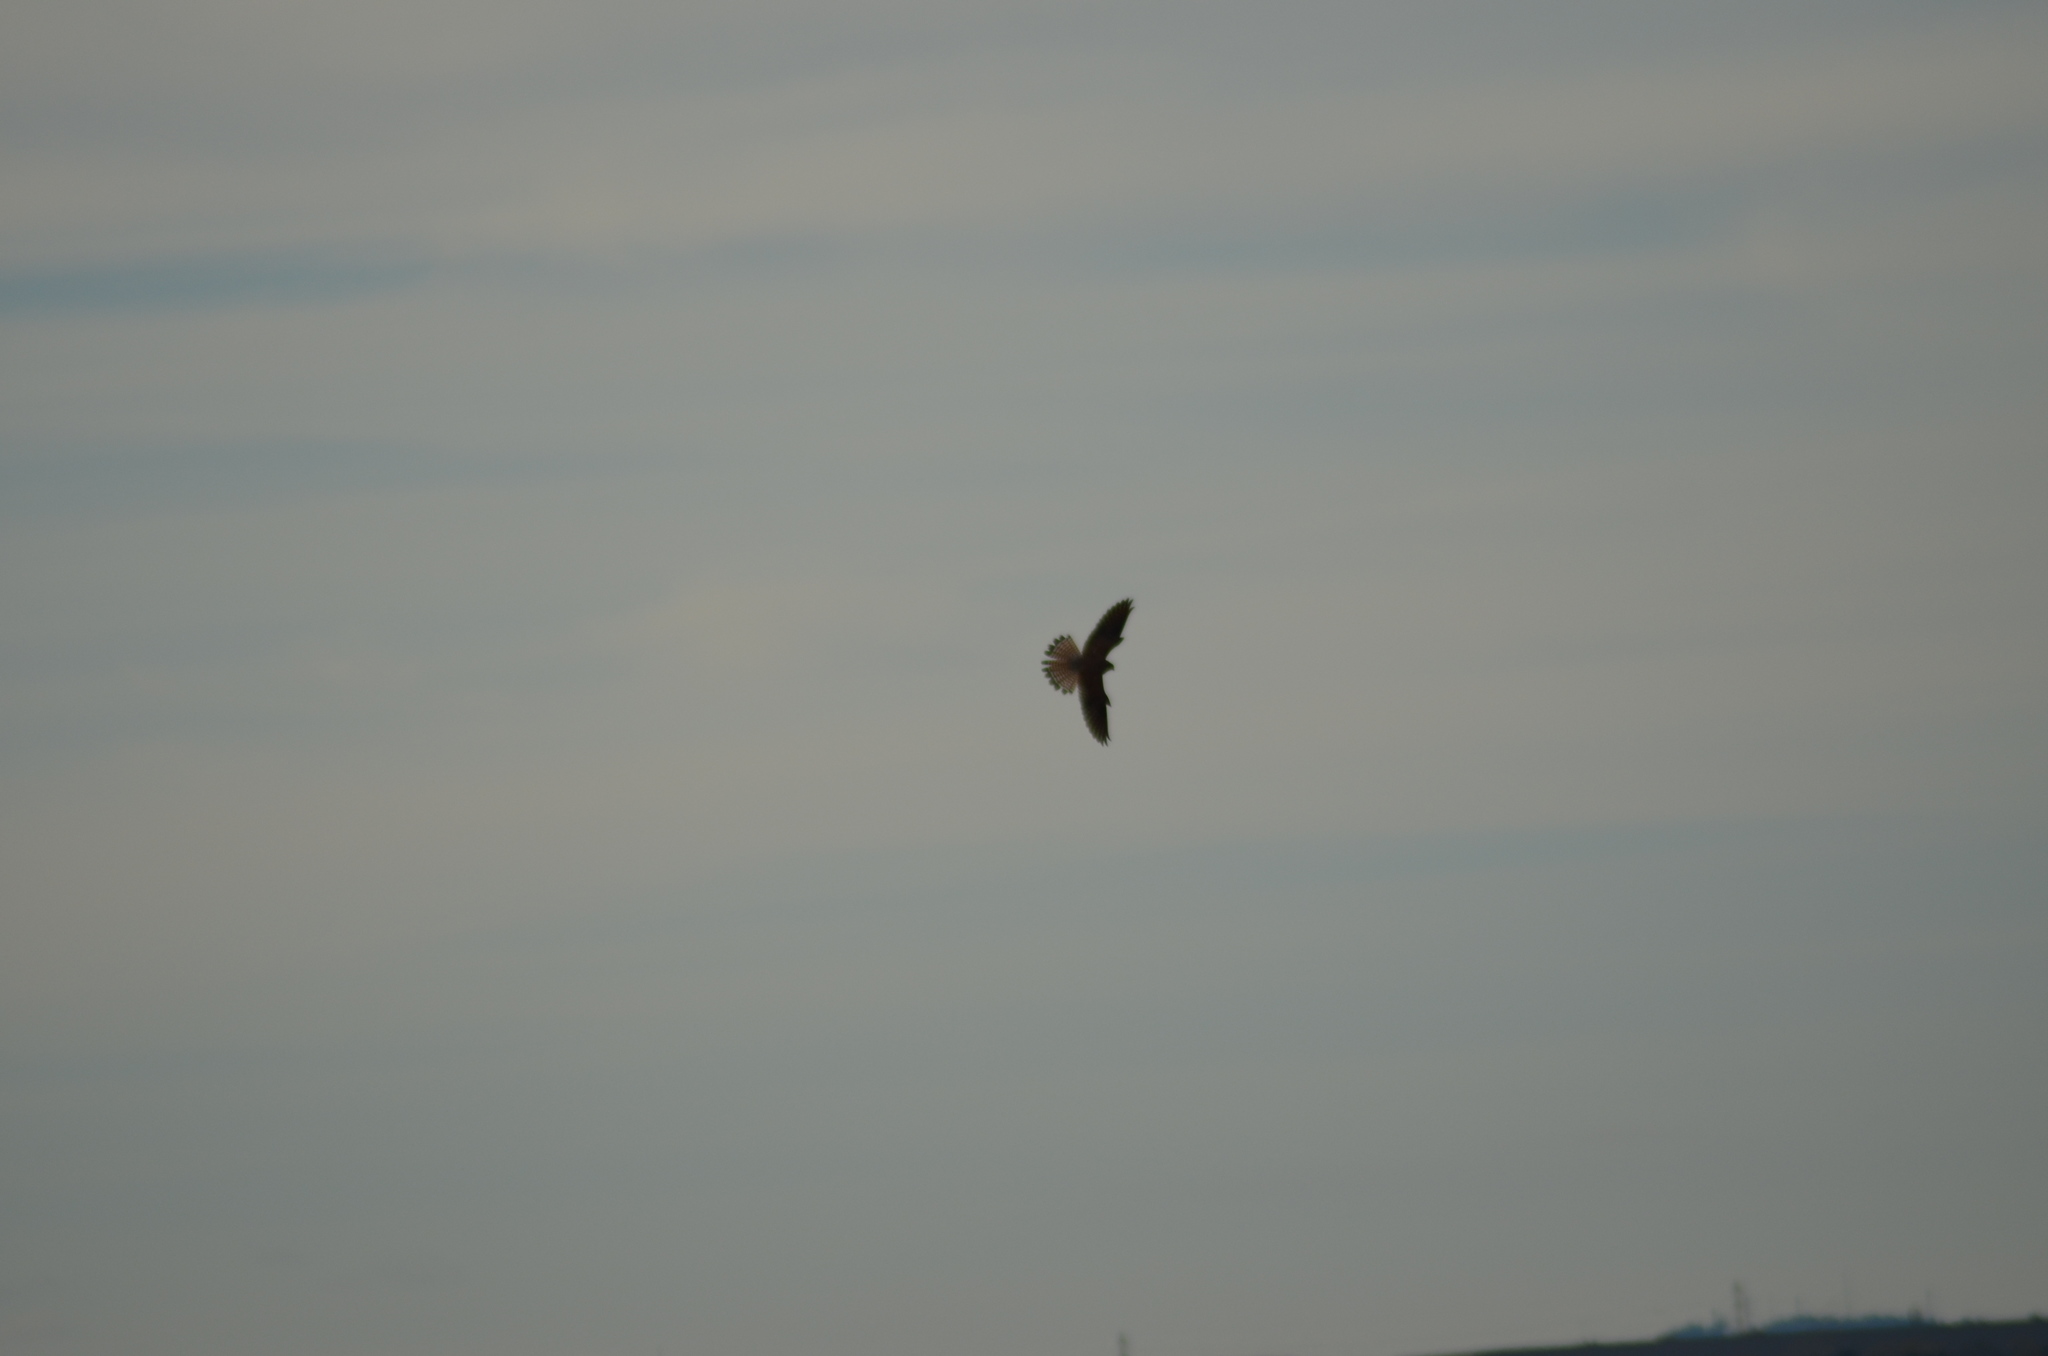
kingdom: Animalia
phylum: Chordata
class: Aves
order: Falconiformes
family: Falconidae
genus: Falco
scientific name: Falco tinnunculus
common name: Common kestrel
